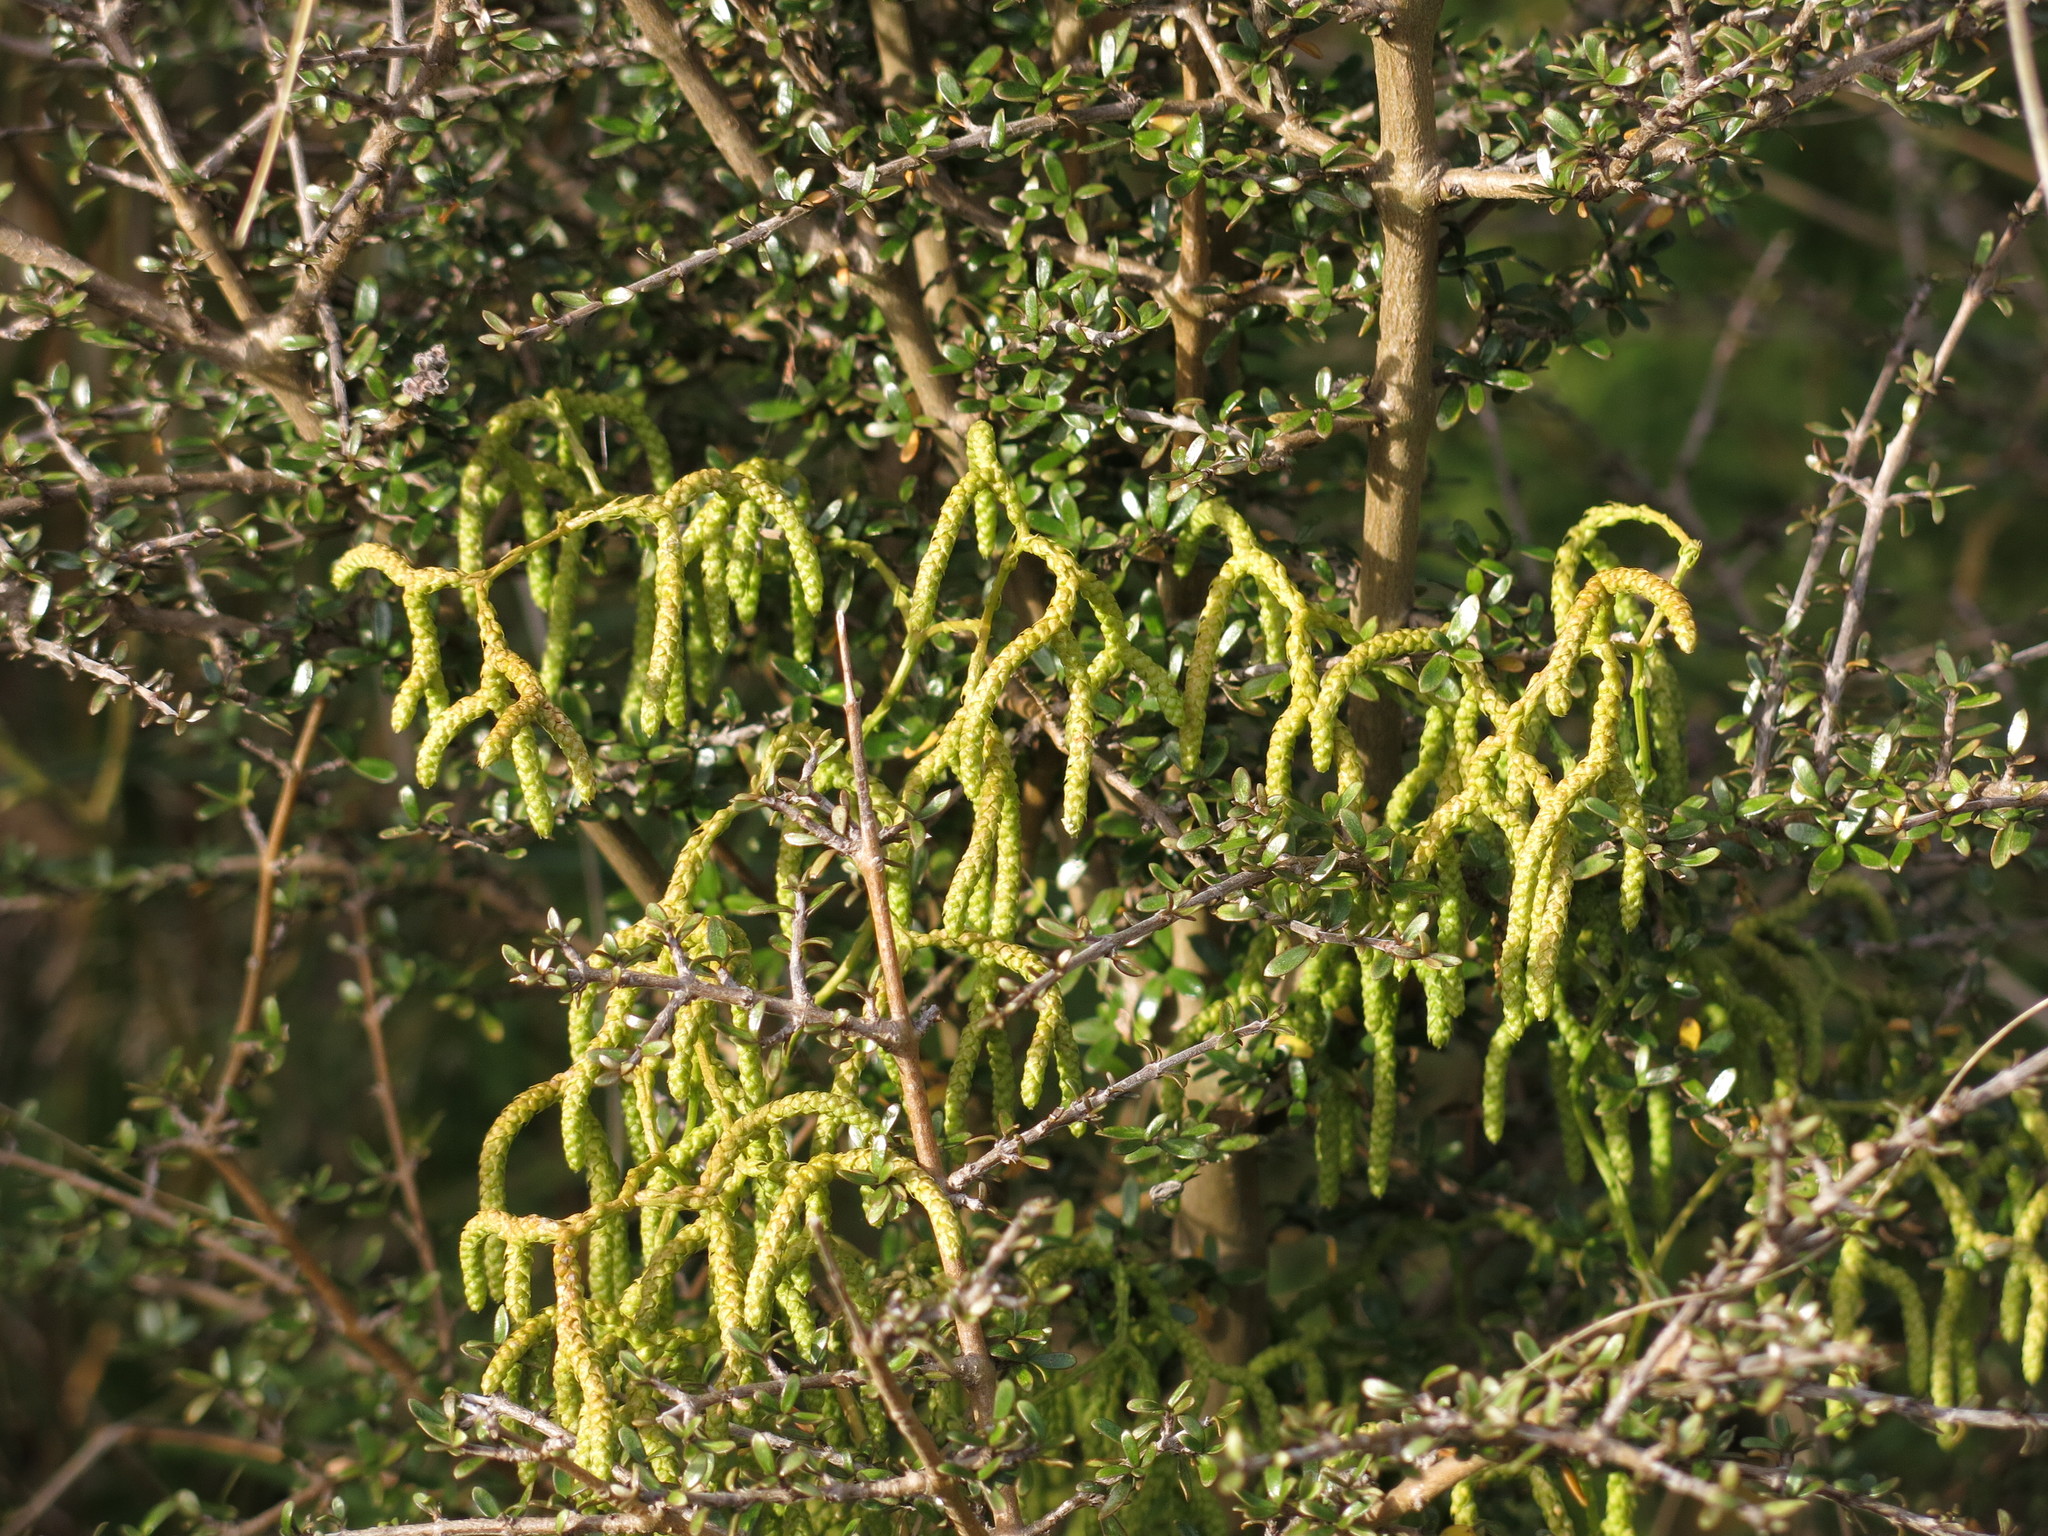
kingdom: Plantae
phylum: Tracheophyta
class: Lycopodiopsida
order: Lycopodiales
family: Lycopodiaceae
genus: Lycopodium
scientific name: Lycopodium volubile
